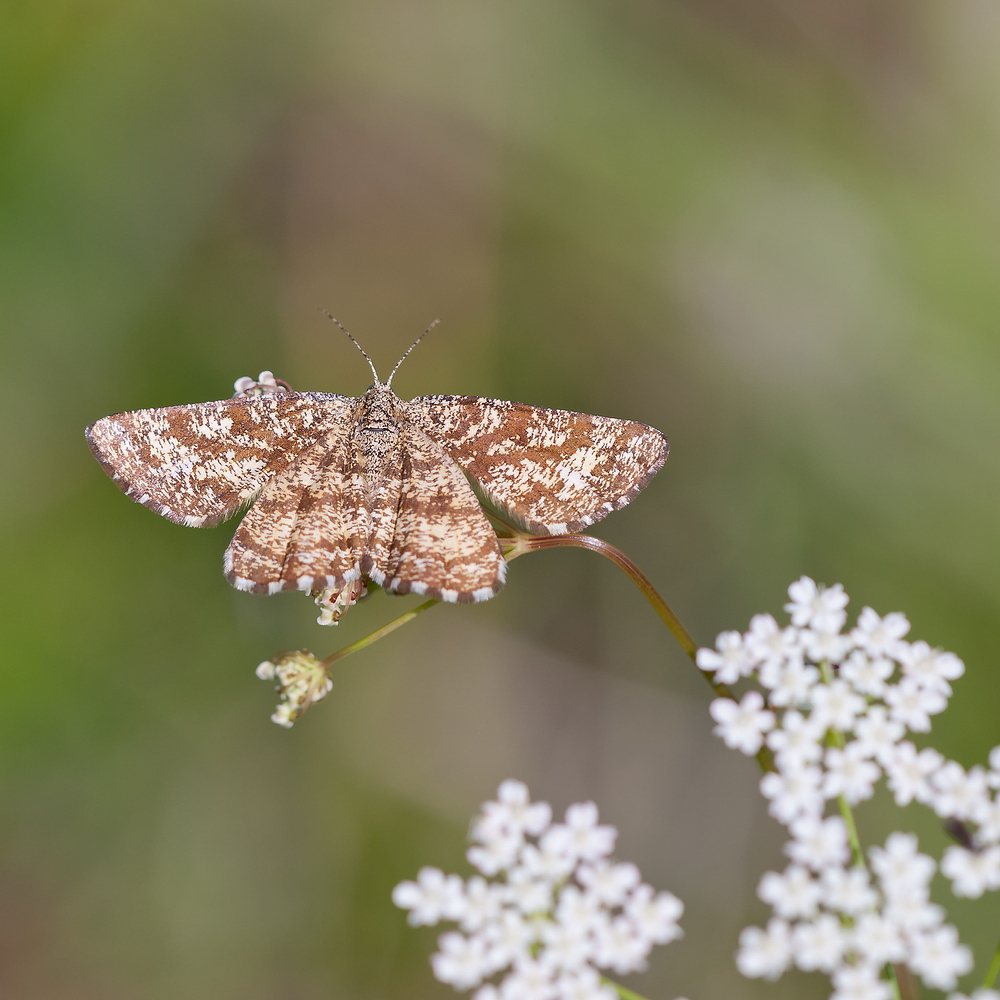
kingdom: Animalia
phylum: Arthropoda
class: Insecta
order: Lepidoptera
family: Geometridae
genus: Ematurga
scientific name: Ematurga atomaria
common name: Common heath
